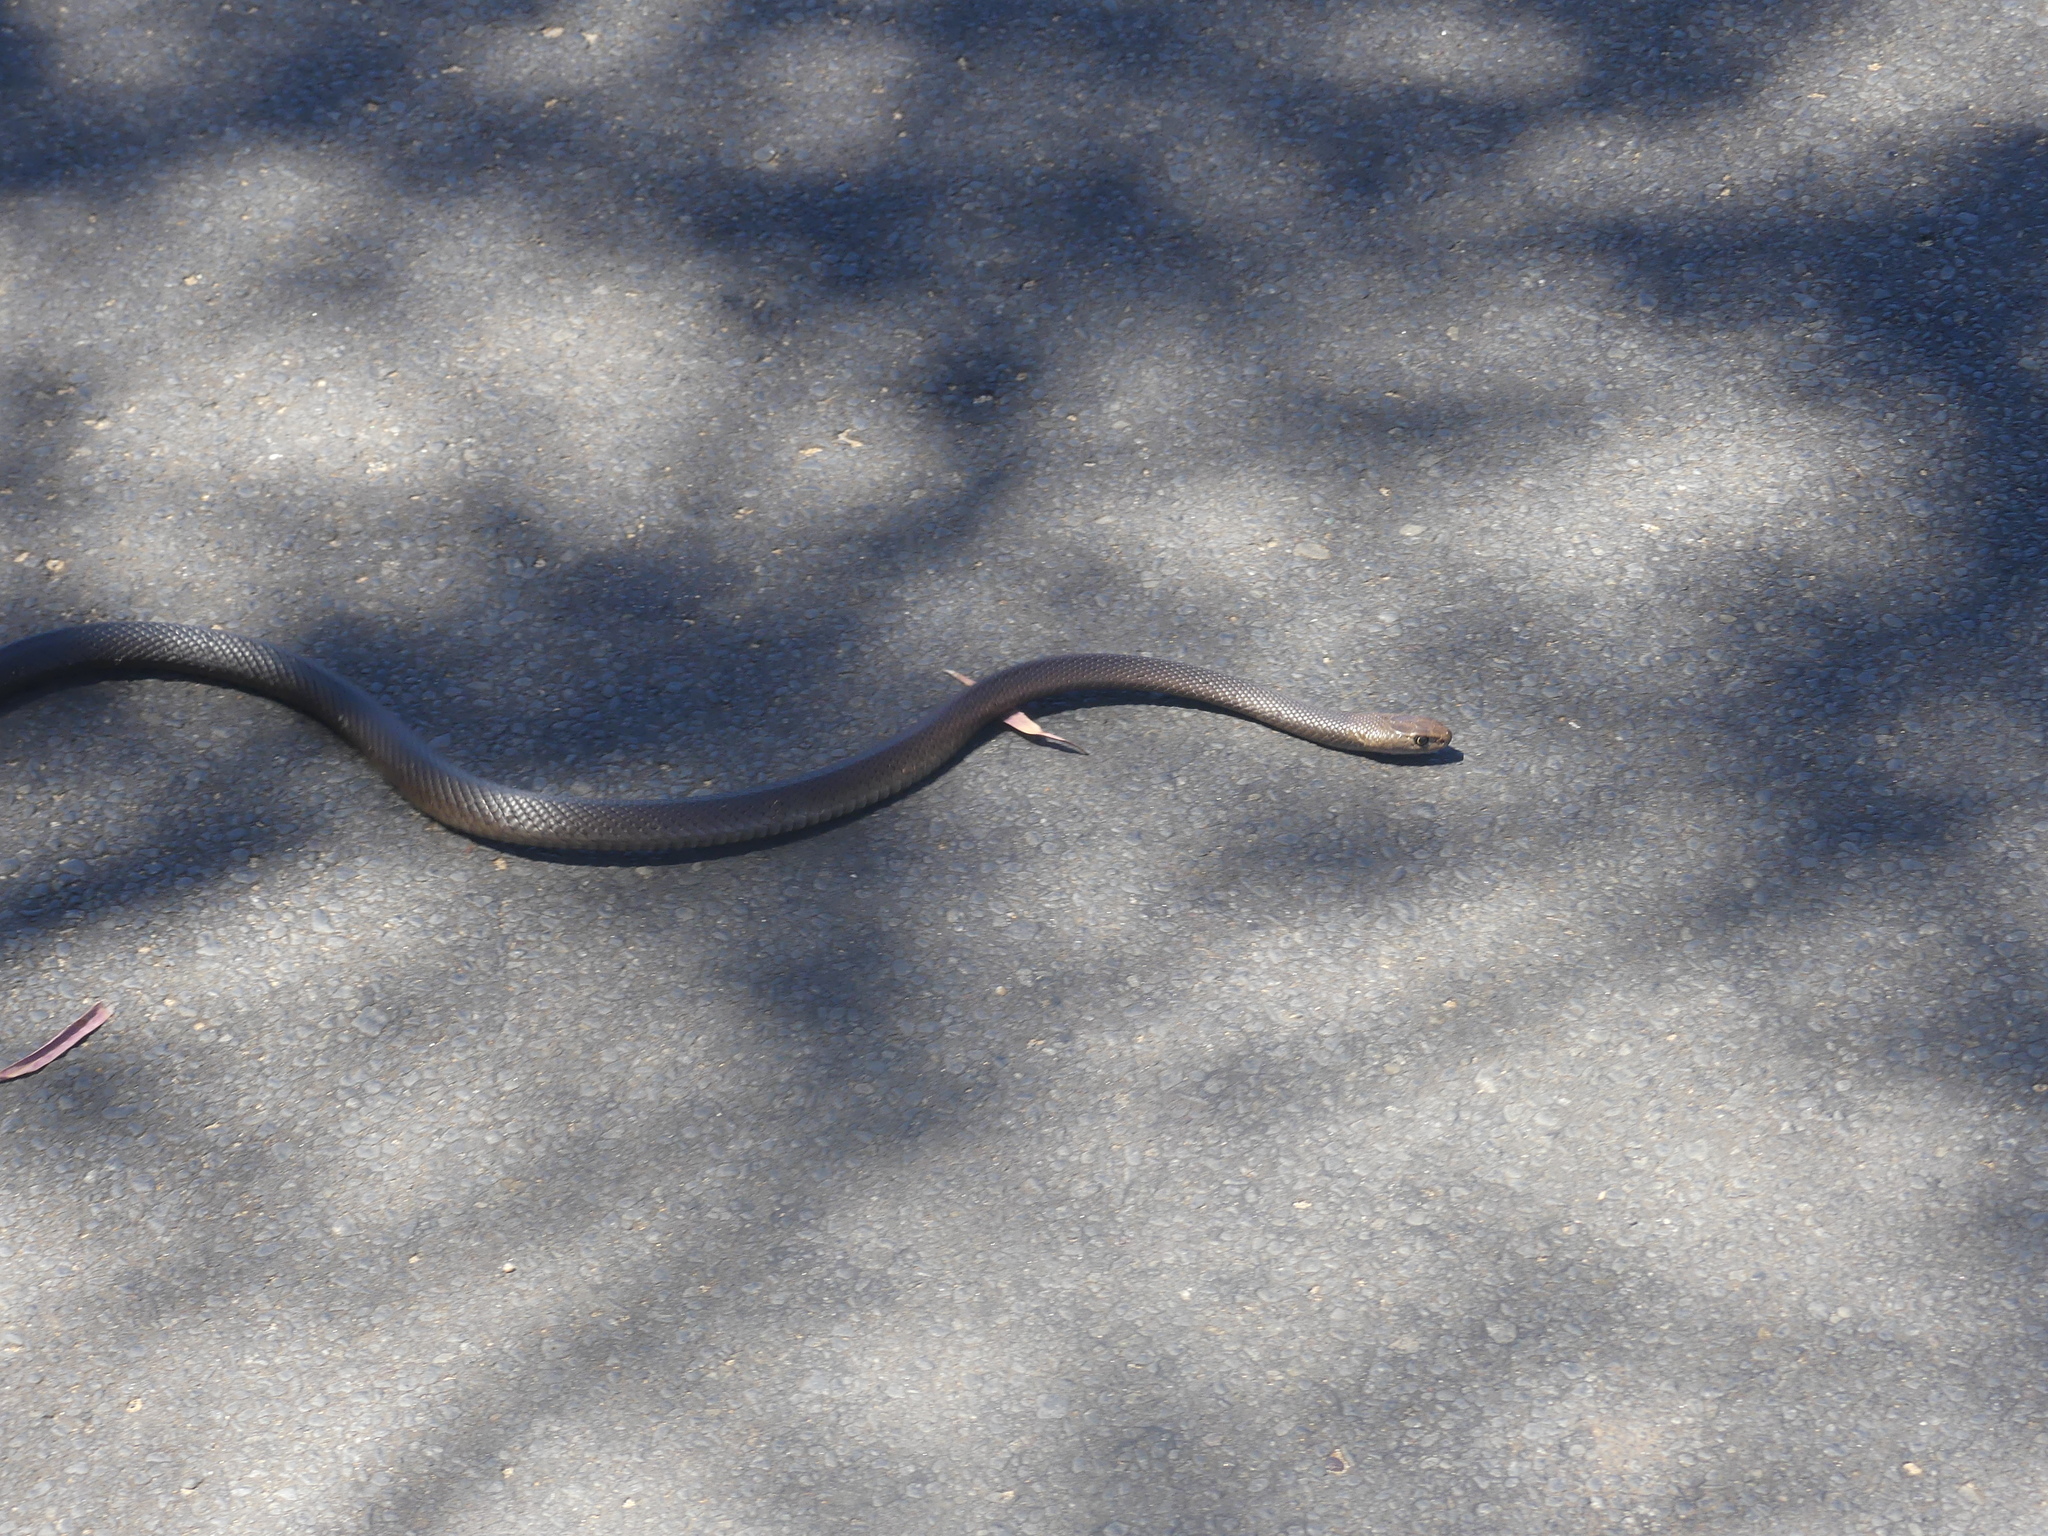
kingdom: Animalia
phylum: Chordata
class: Squamata
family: Elapidae
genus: Pseudonaja
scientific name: Pseudonaja affinis
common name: Dugite
